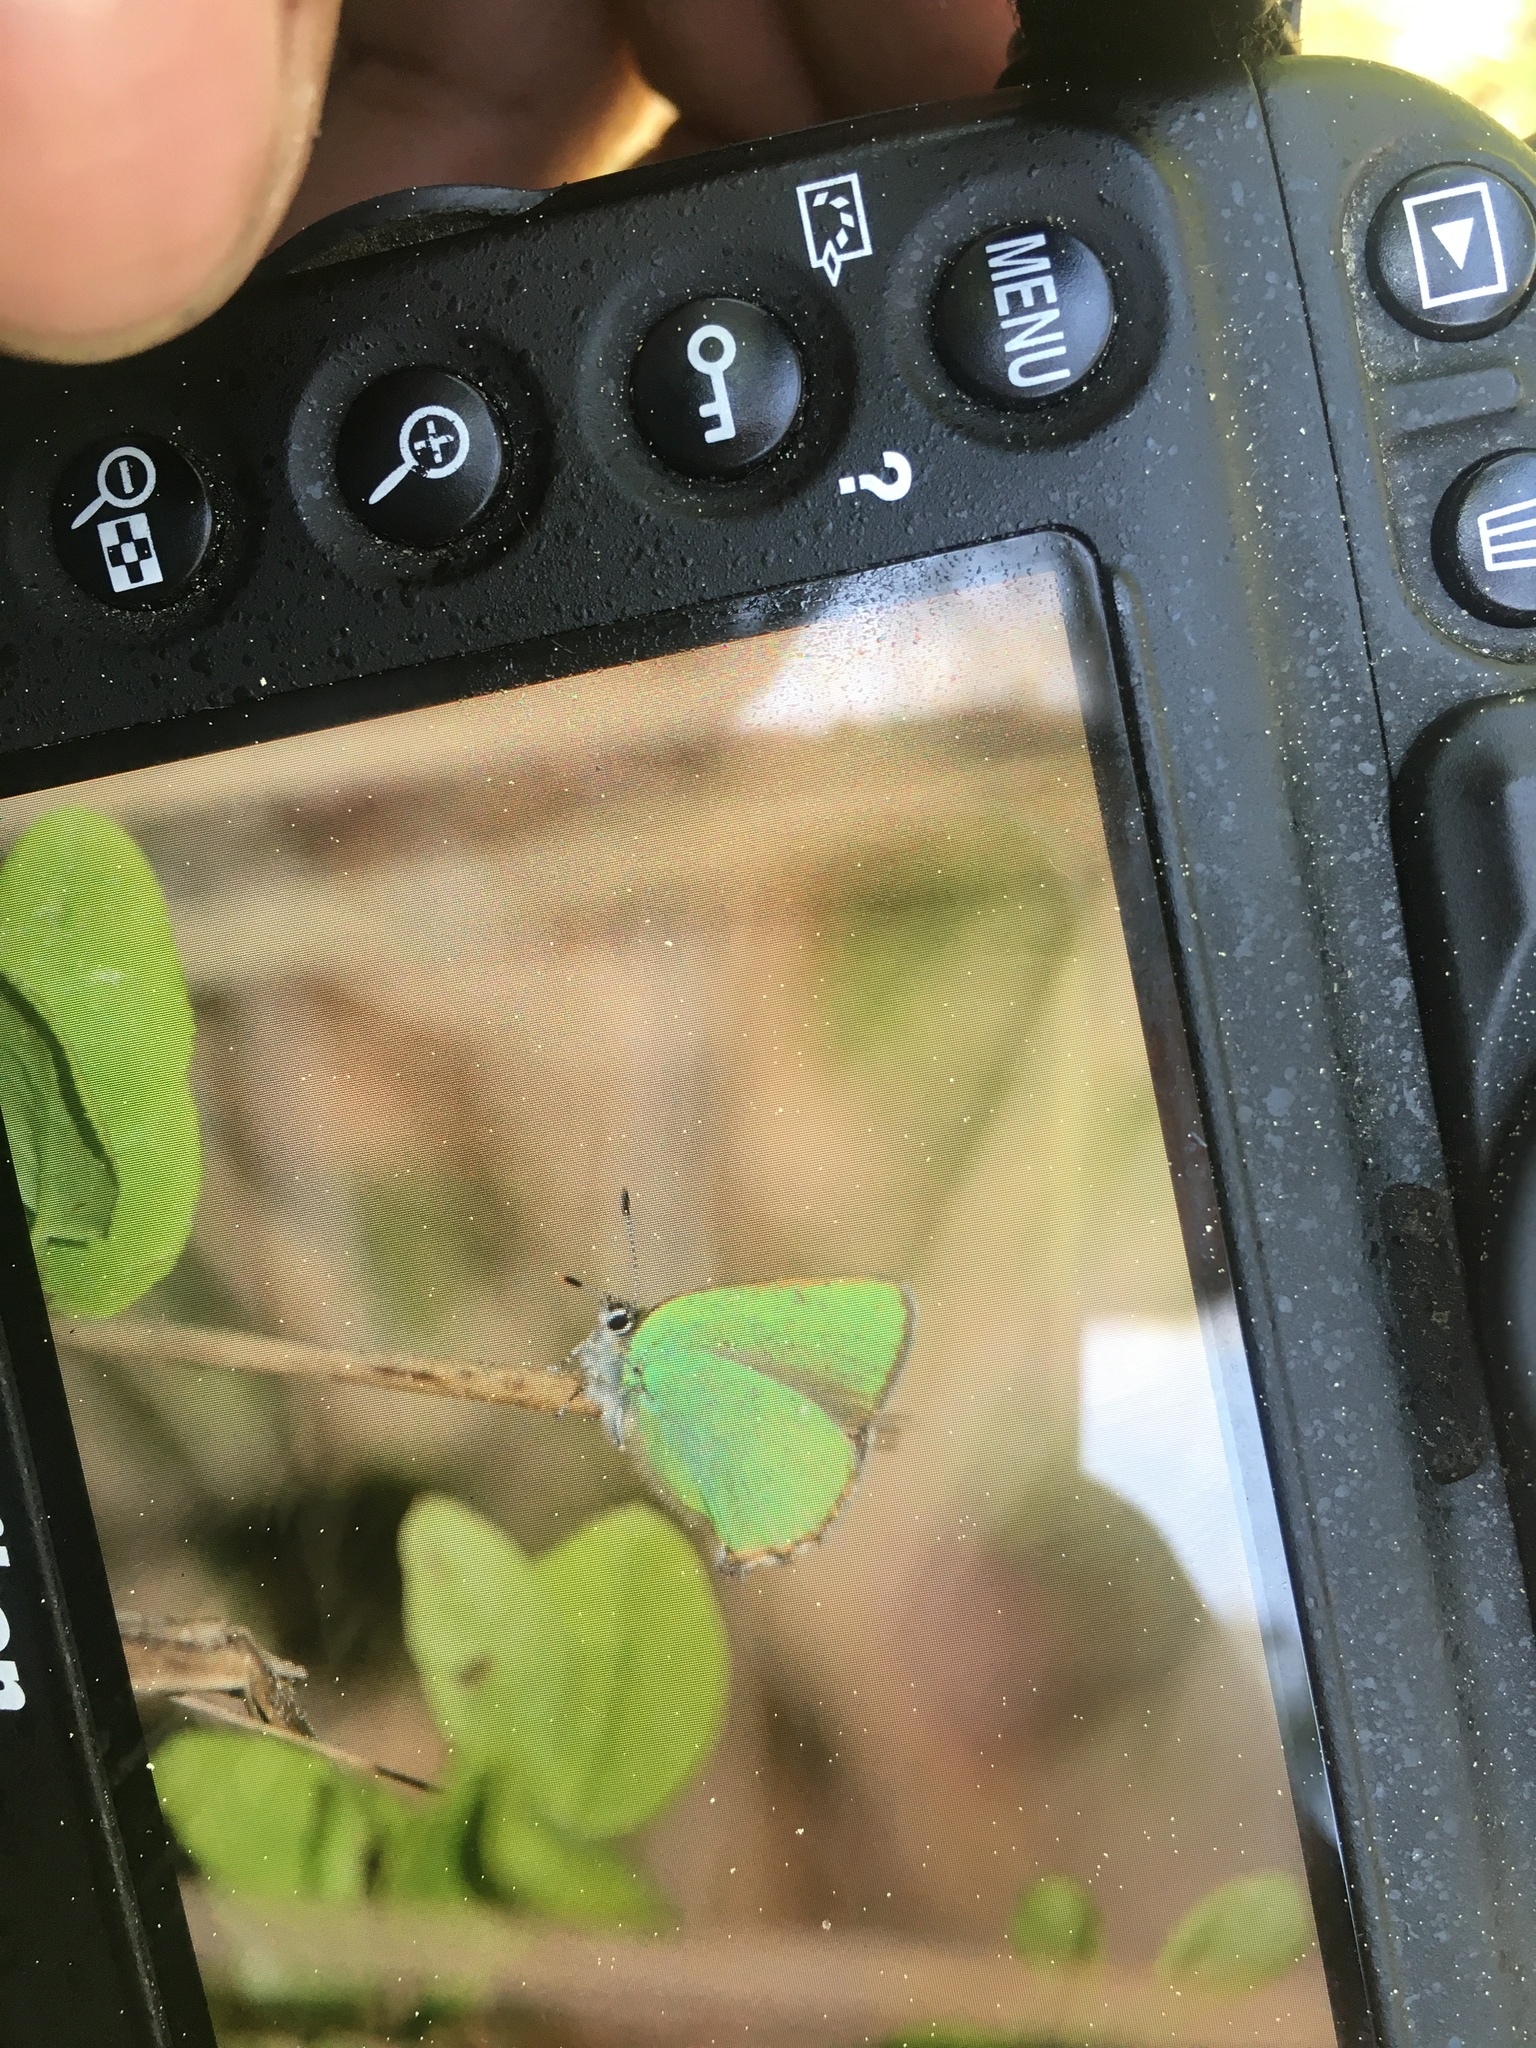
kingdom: Animalia
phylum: Arthropoda
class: Insecta
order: Lepidoptera
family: Lycaenidae
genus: Callophrys
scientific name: Callophrys rubi
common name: Green hairstreak
